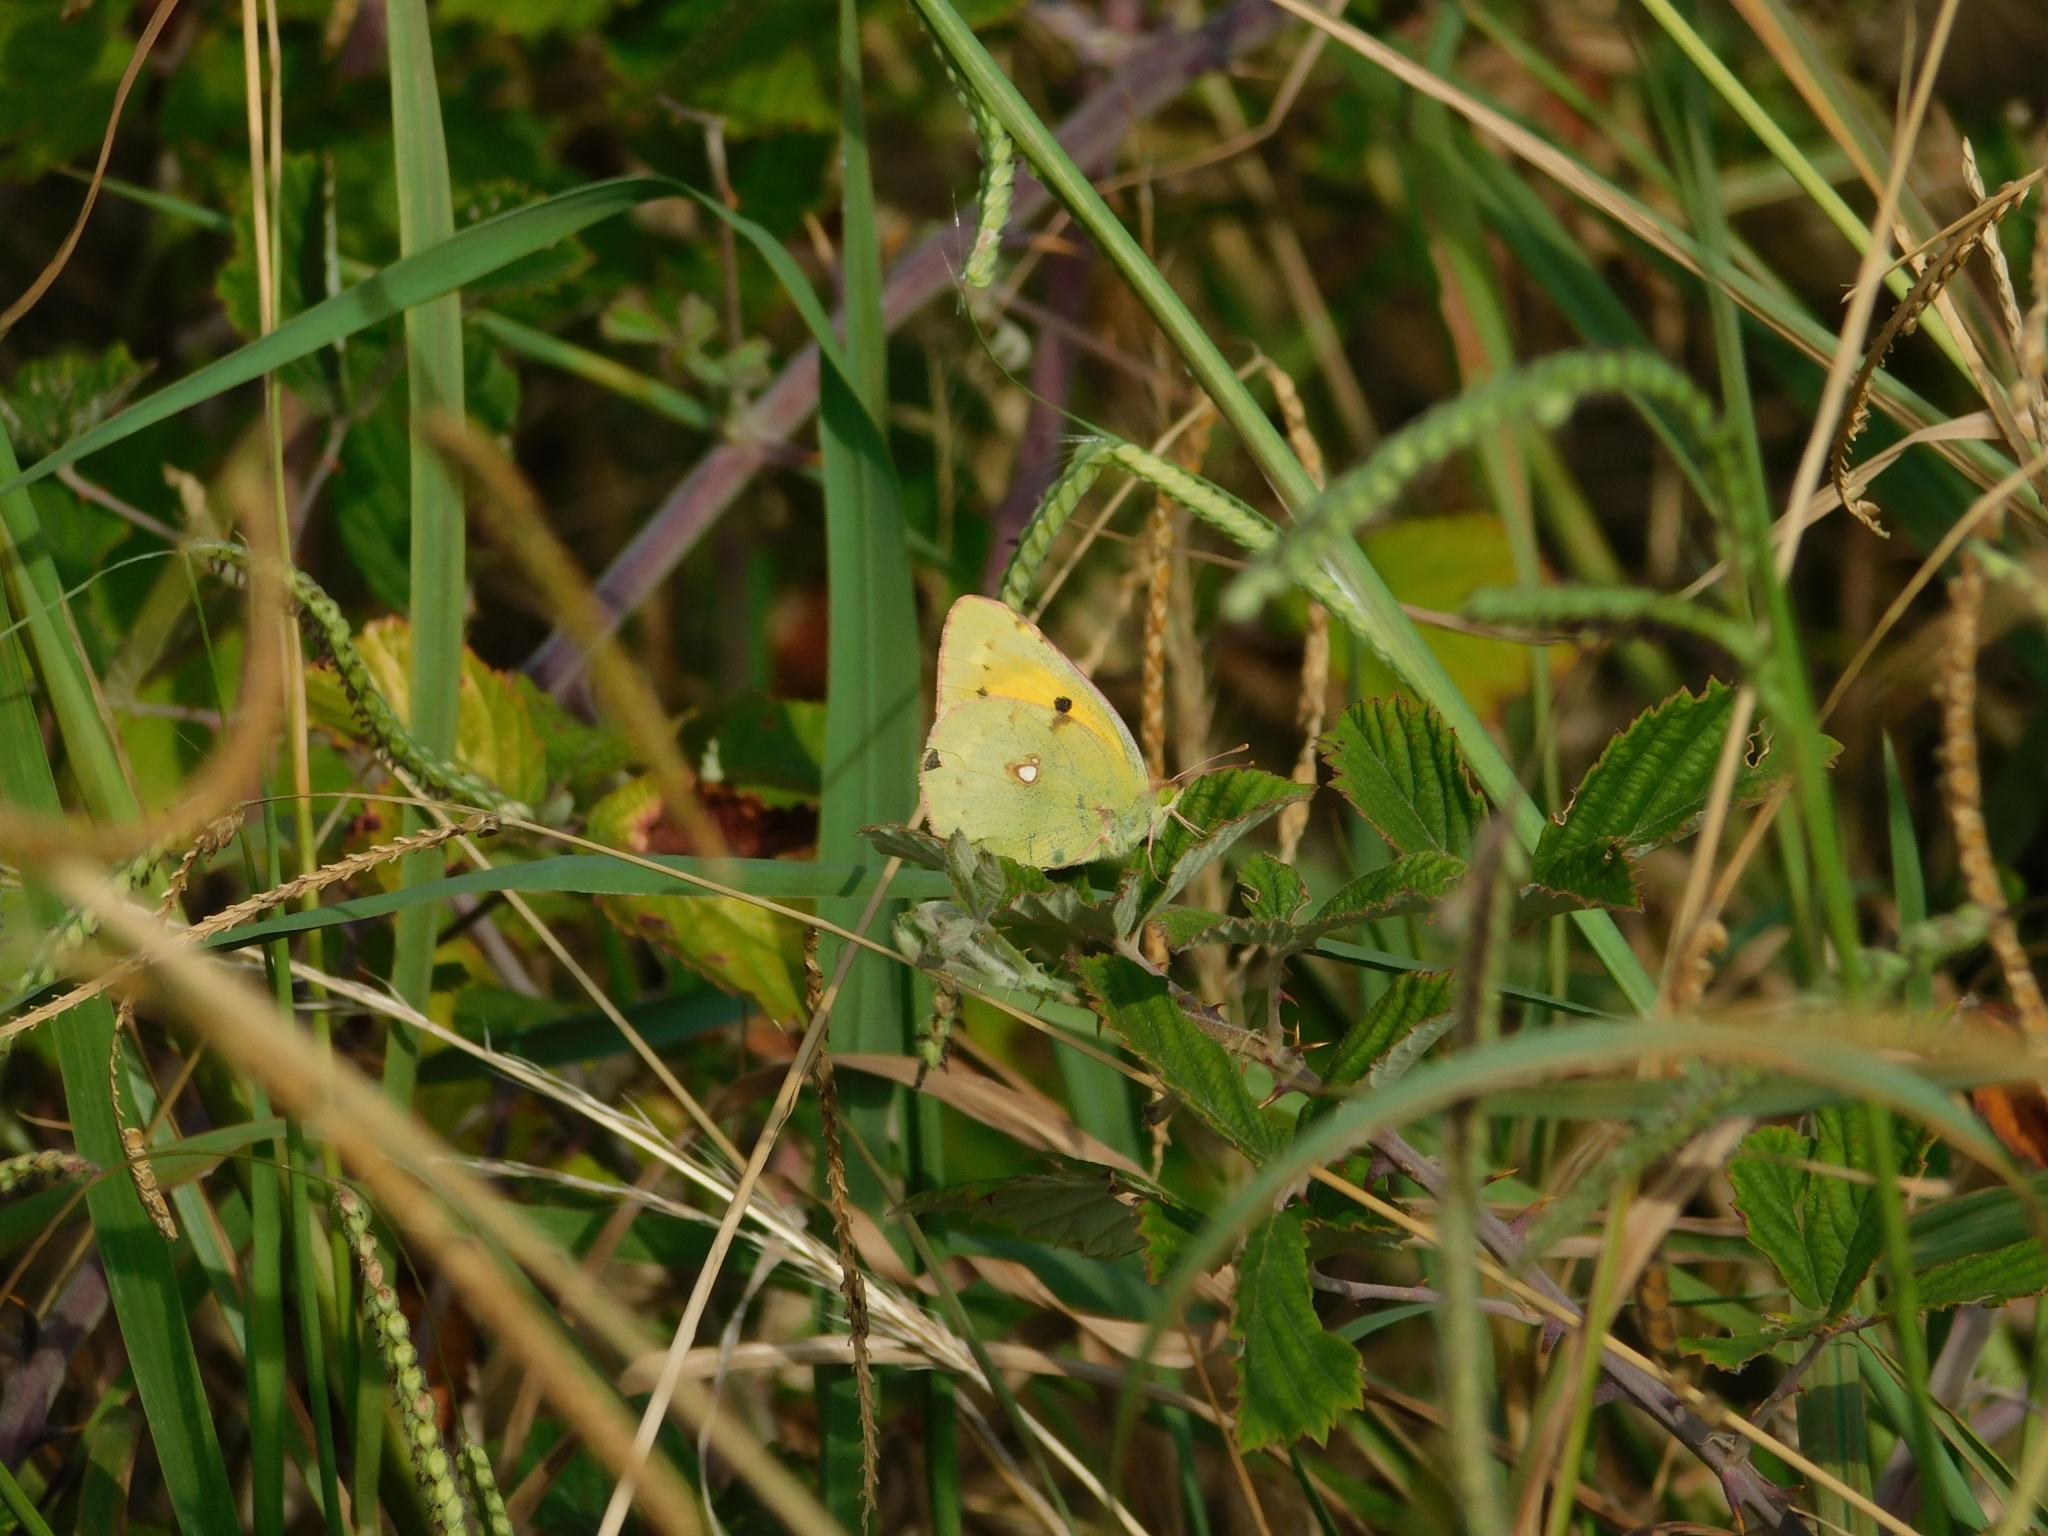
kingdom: Animalia
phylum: Arthropoda
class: Insecta
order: Lepidoptera
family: Pieridae
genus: Colias
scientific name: Colias croceus
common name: Clouded yellow
